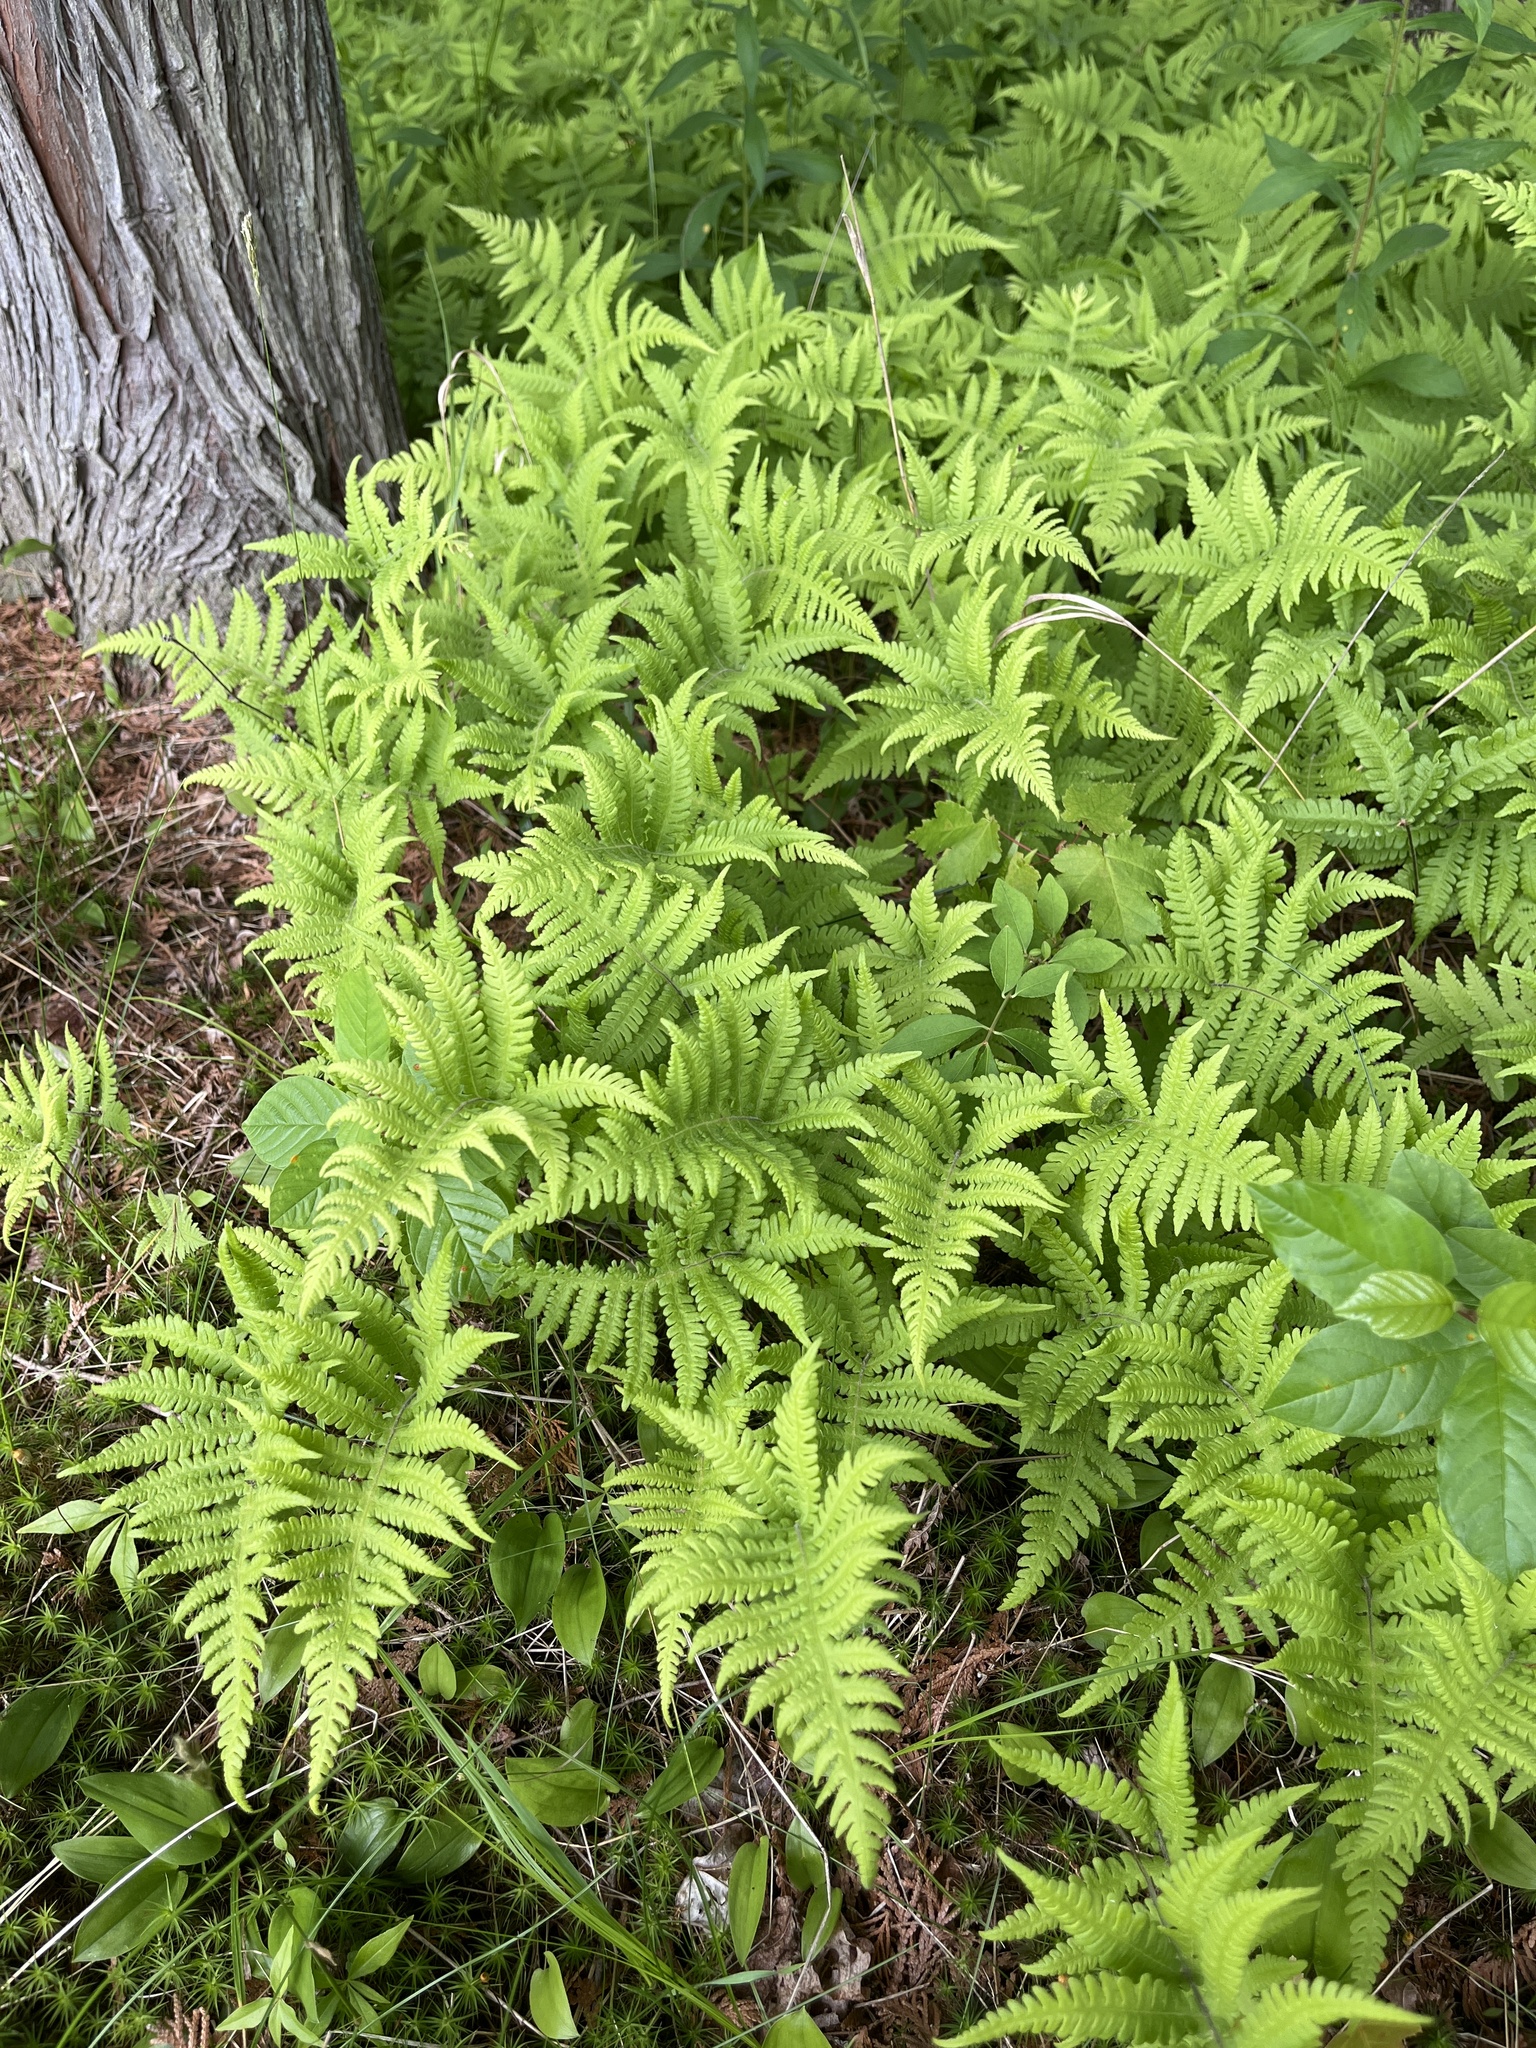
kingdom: Plantae
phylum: Tracheophyta
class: Polypodiopsida
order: Polypodiales
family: Thelypteridaceae
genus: Phegopteris
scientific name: Phegopteris connectilis
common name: Beech fern
